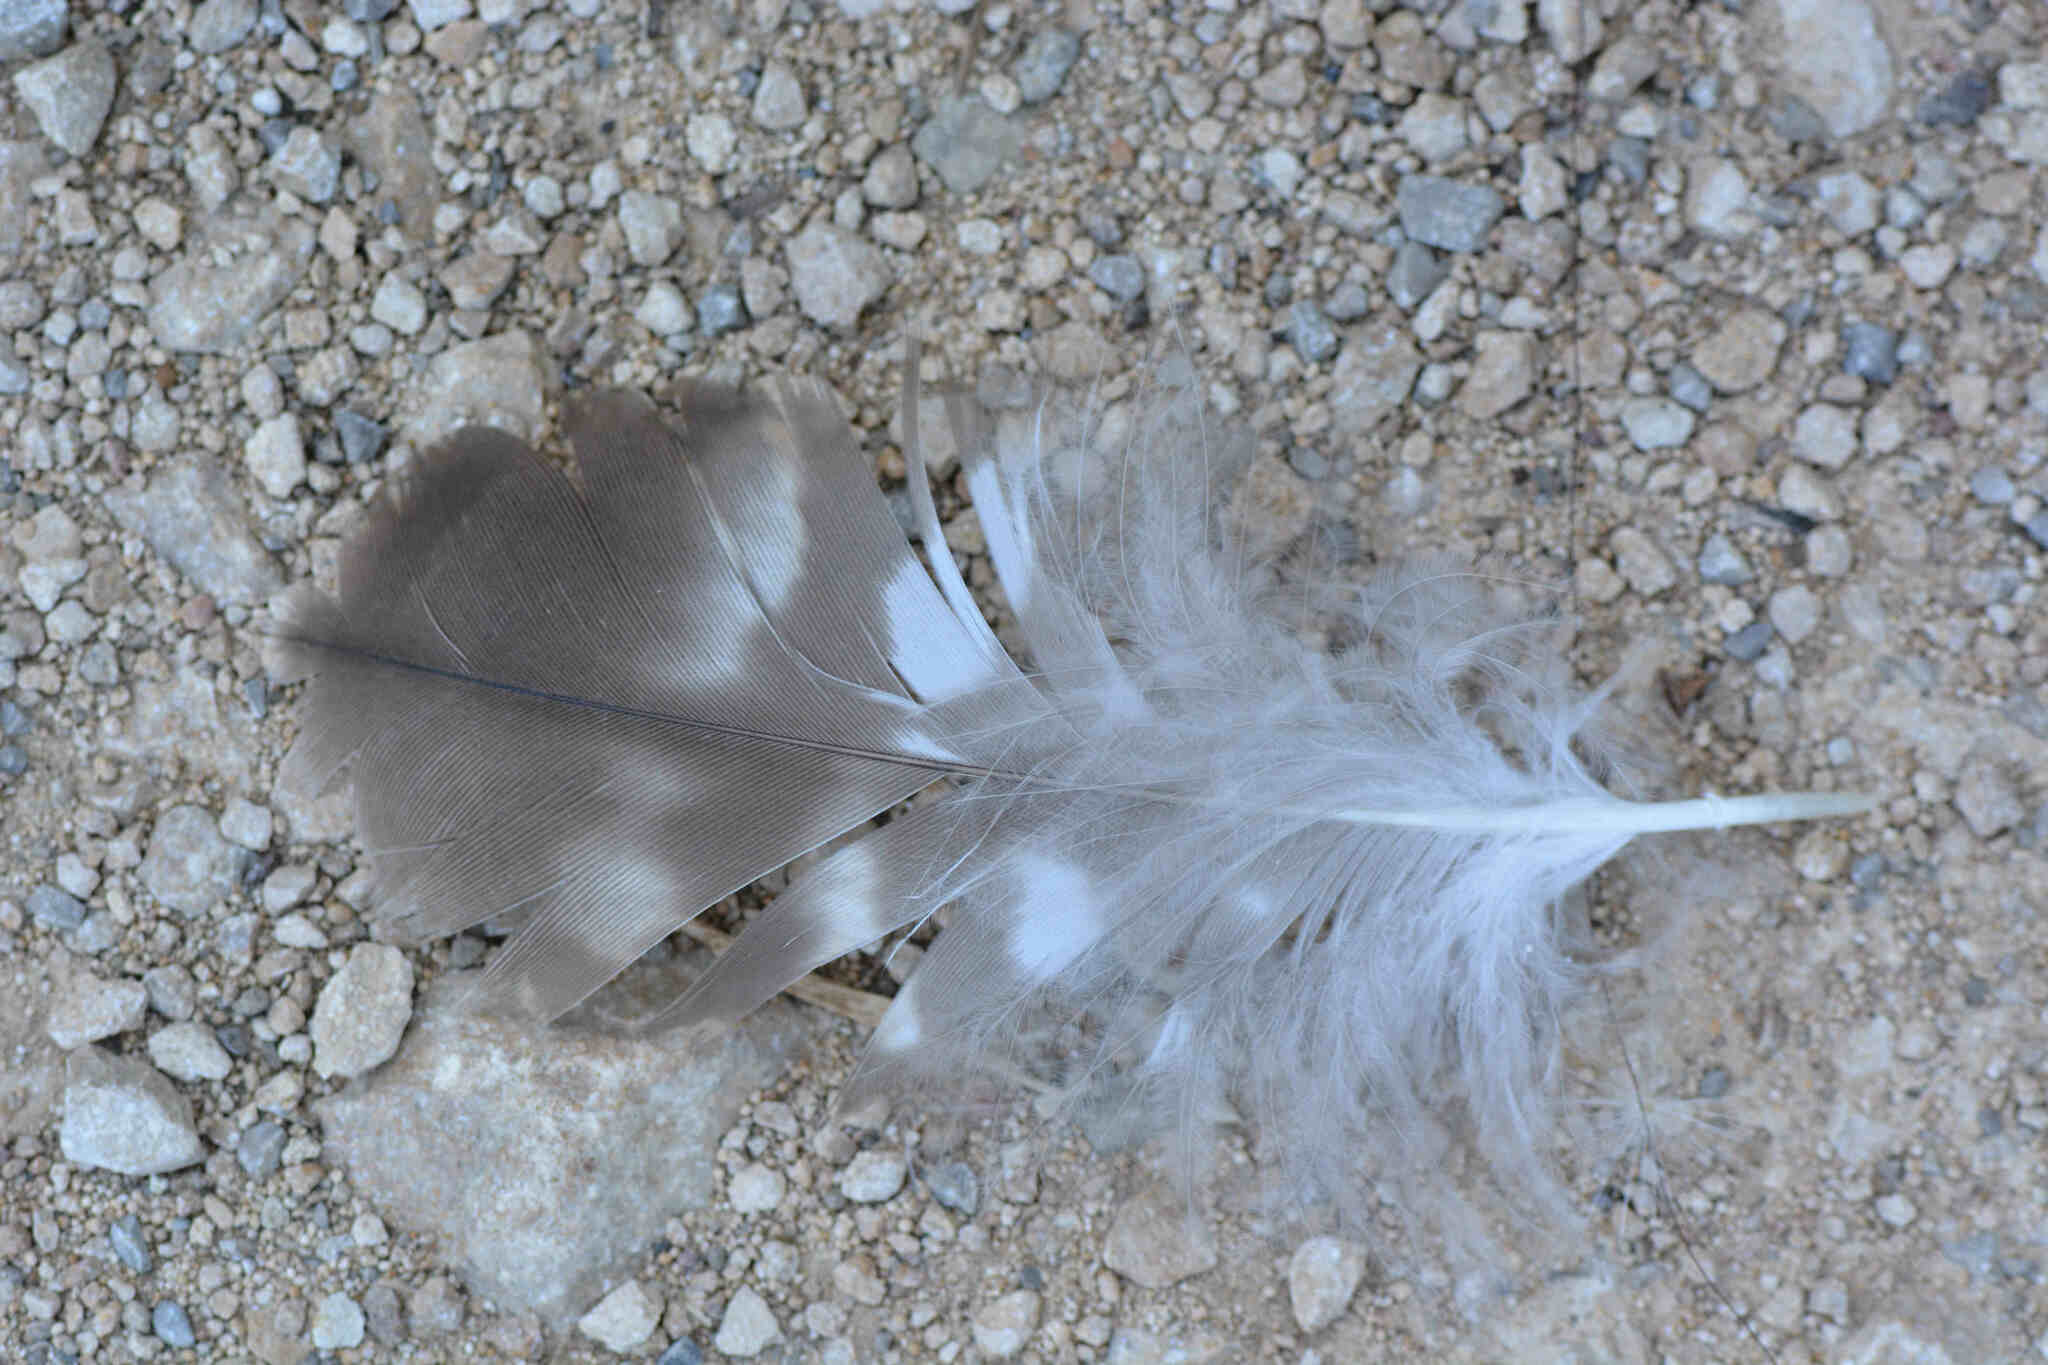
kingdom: Animalia
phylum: Chordata
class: Aves
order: Accipitriformes
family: Accipitridae
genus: Buteo
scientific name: Buteo buteo
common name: Common buzzard
